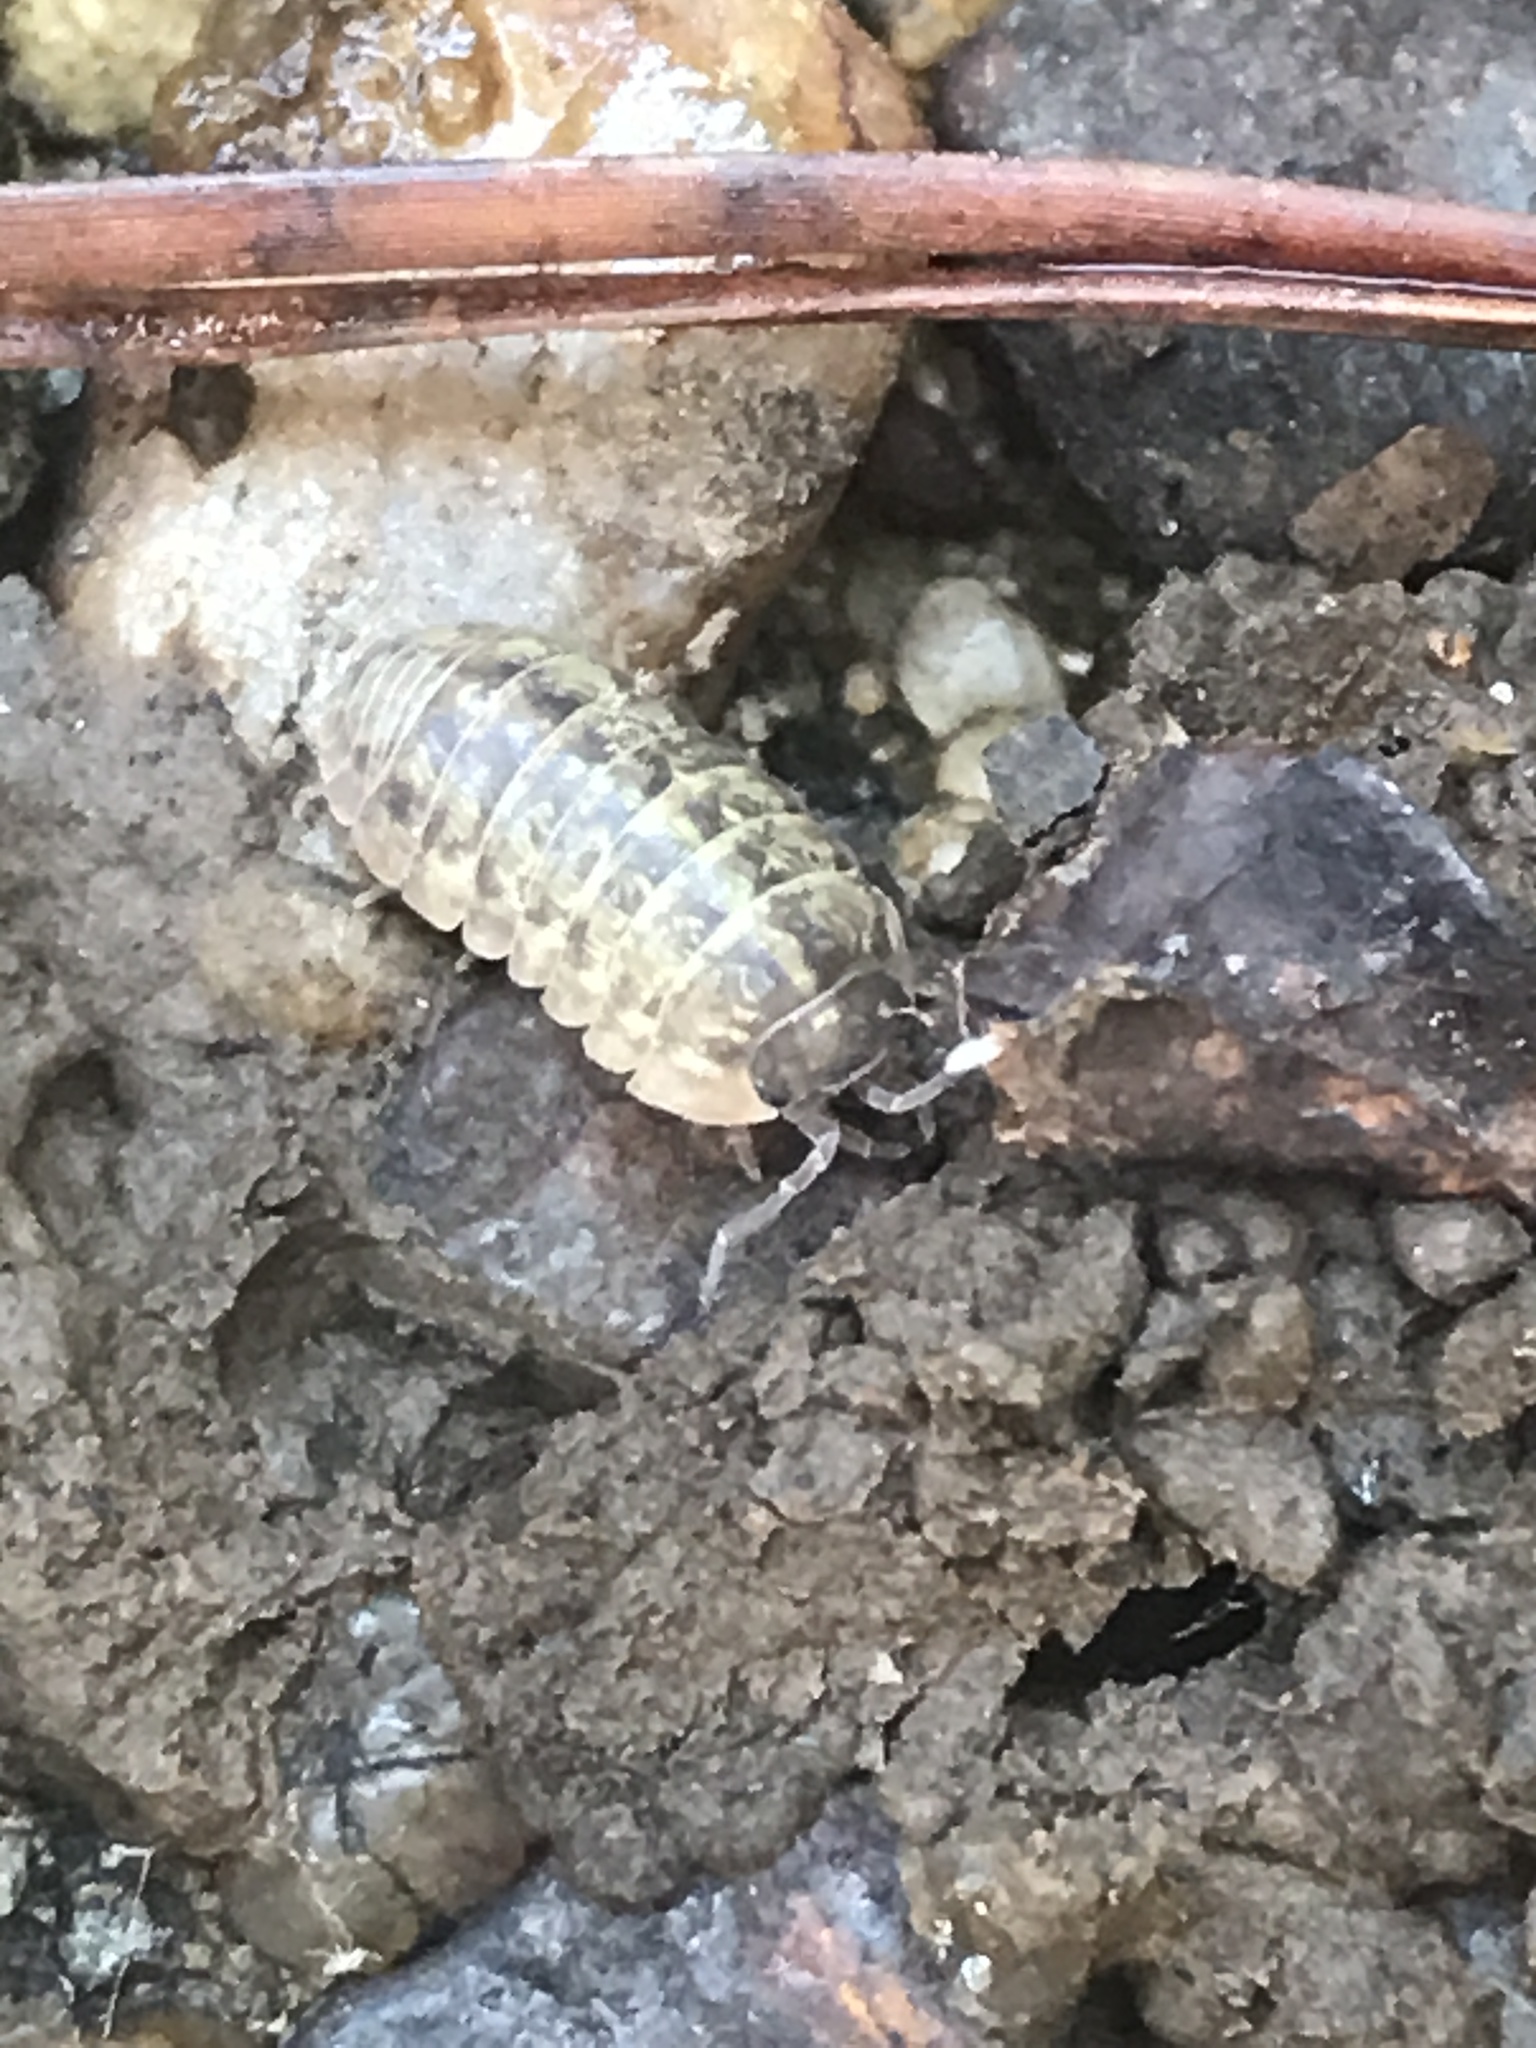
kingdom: Animalia
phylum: Arthropoda
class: Malacostraca
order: Isopoda
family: Armadillidiidae
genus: Armadillidium
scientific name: Armadillidium vulgare
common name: Common pill woodlouse
